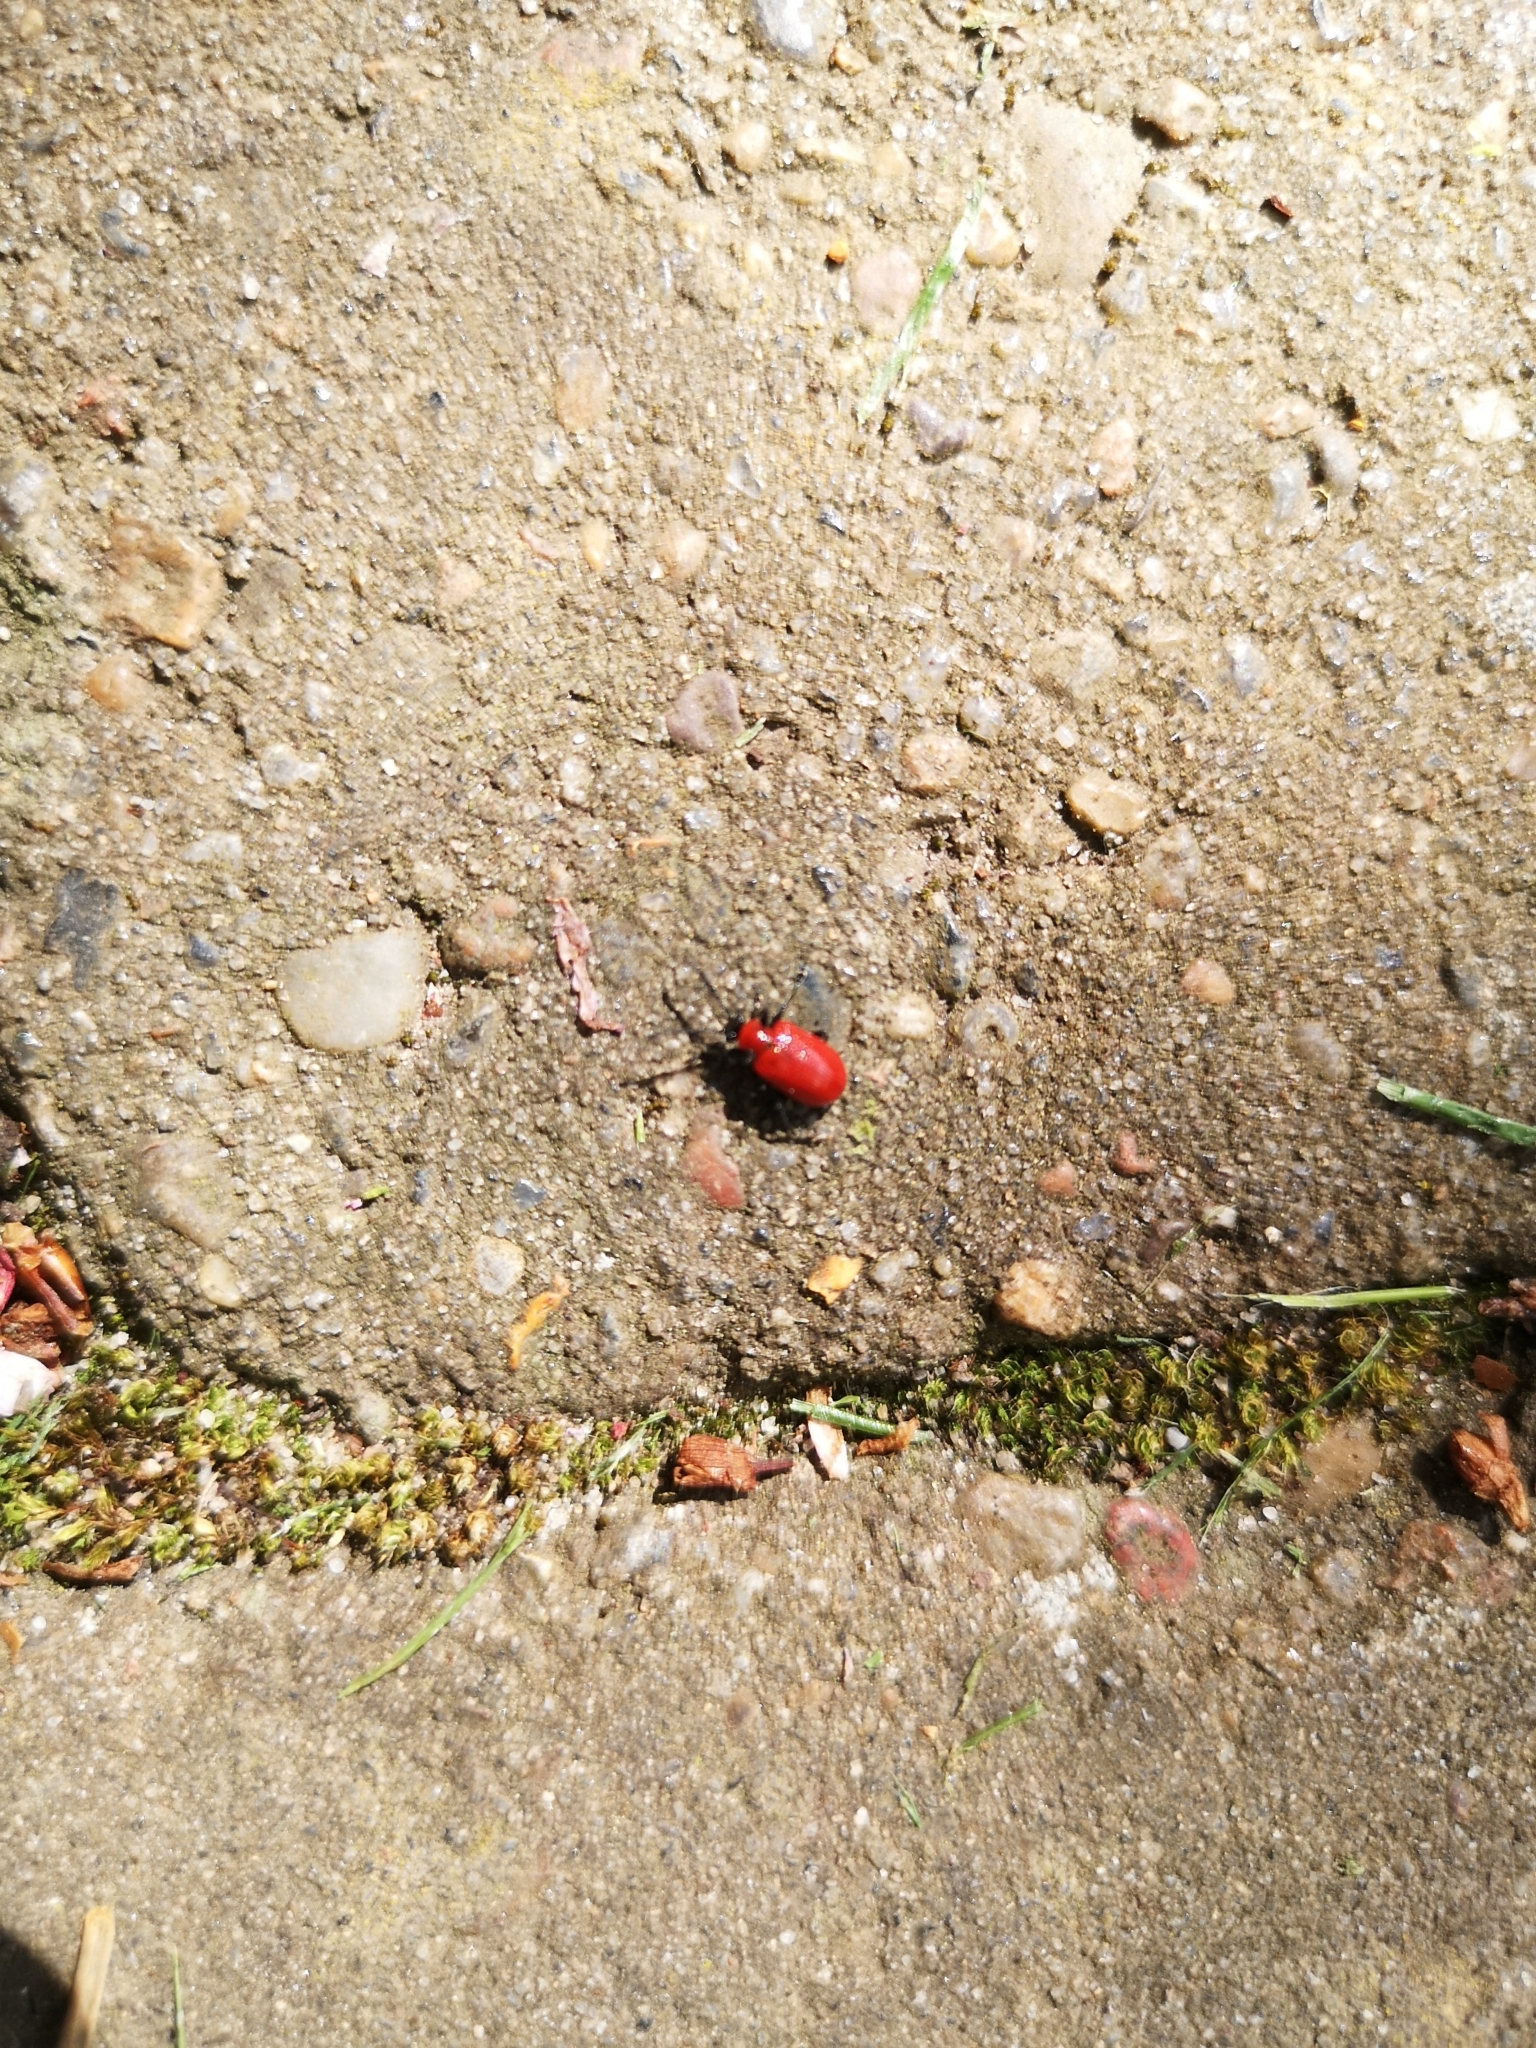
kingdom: Animalia
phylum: Arthropoda
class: Insecta
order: Coleoptera
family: Chrysomelidae
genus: Lilioceris
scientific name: Lilioceris lilii
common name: Lily beetle
